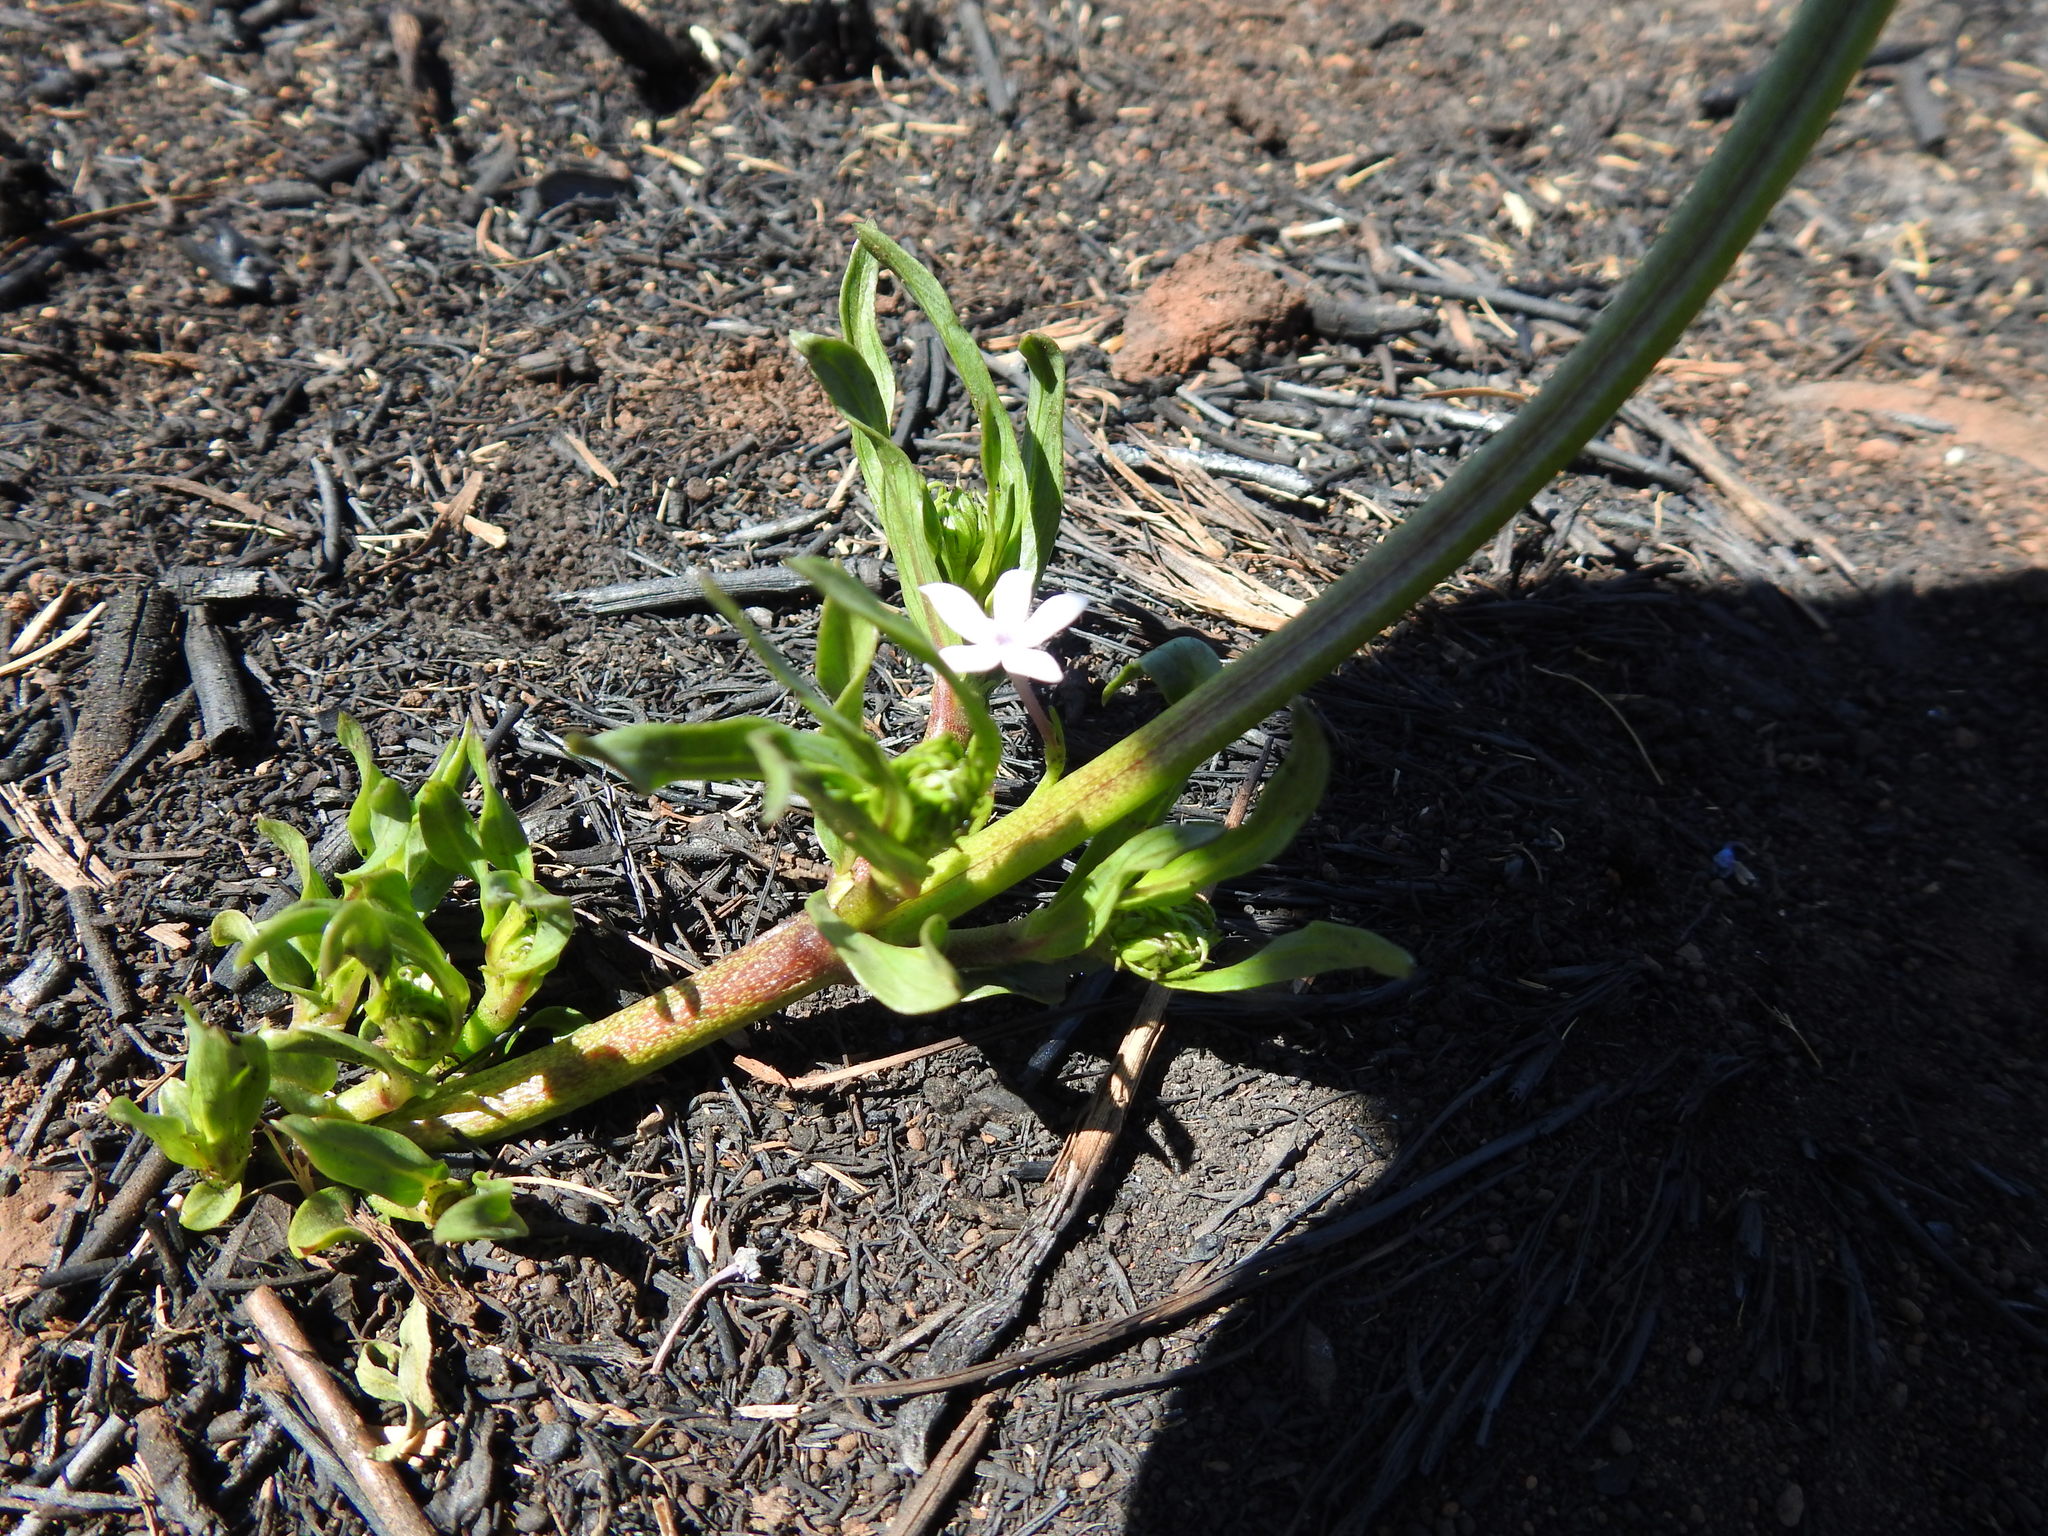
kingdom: Plantae
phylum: Tracheophyta
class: Magnoliopsida
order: Gentianales
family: Rubiaceae
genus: Pentanisia
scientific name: Pentanisia angustifolia
